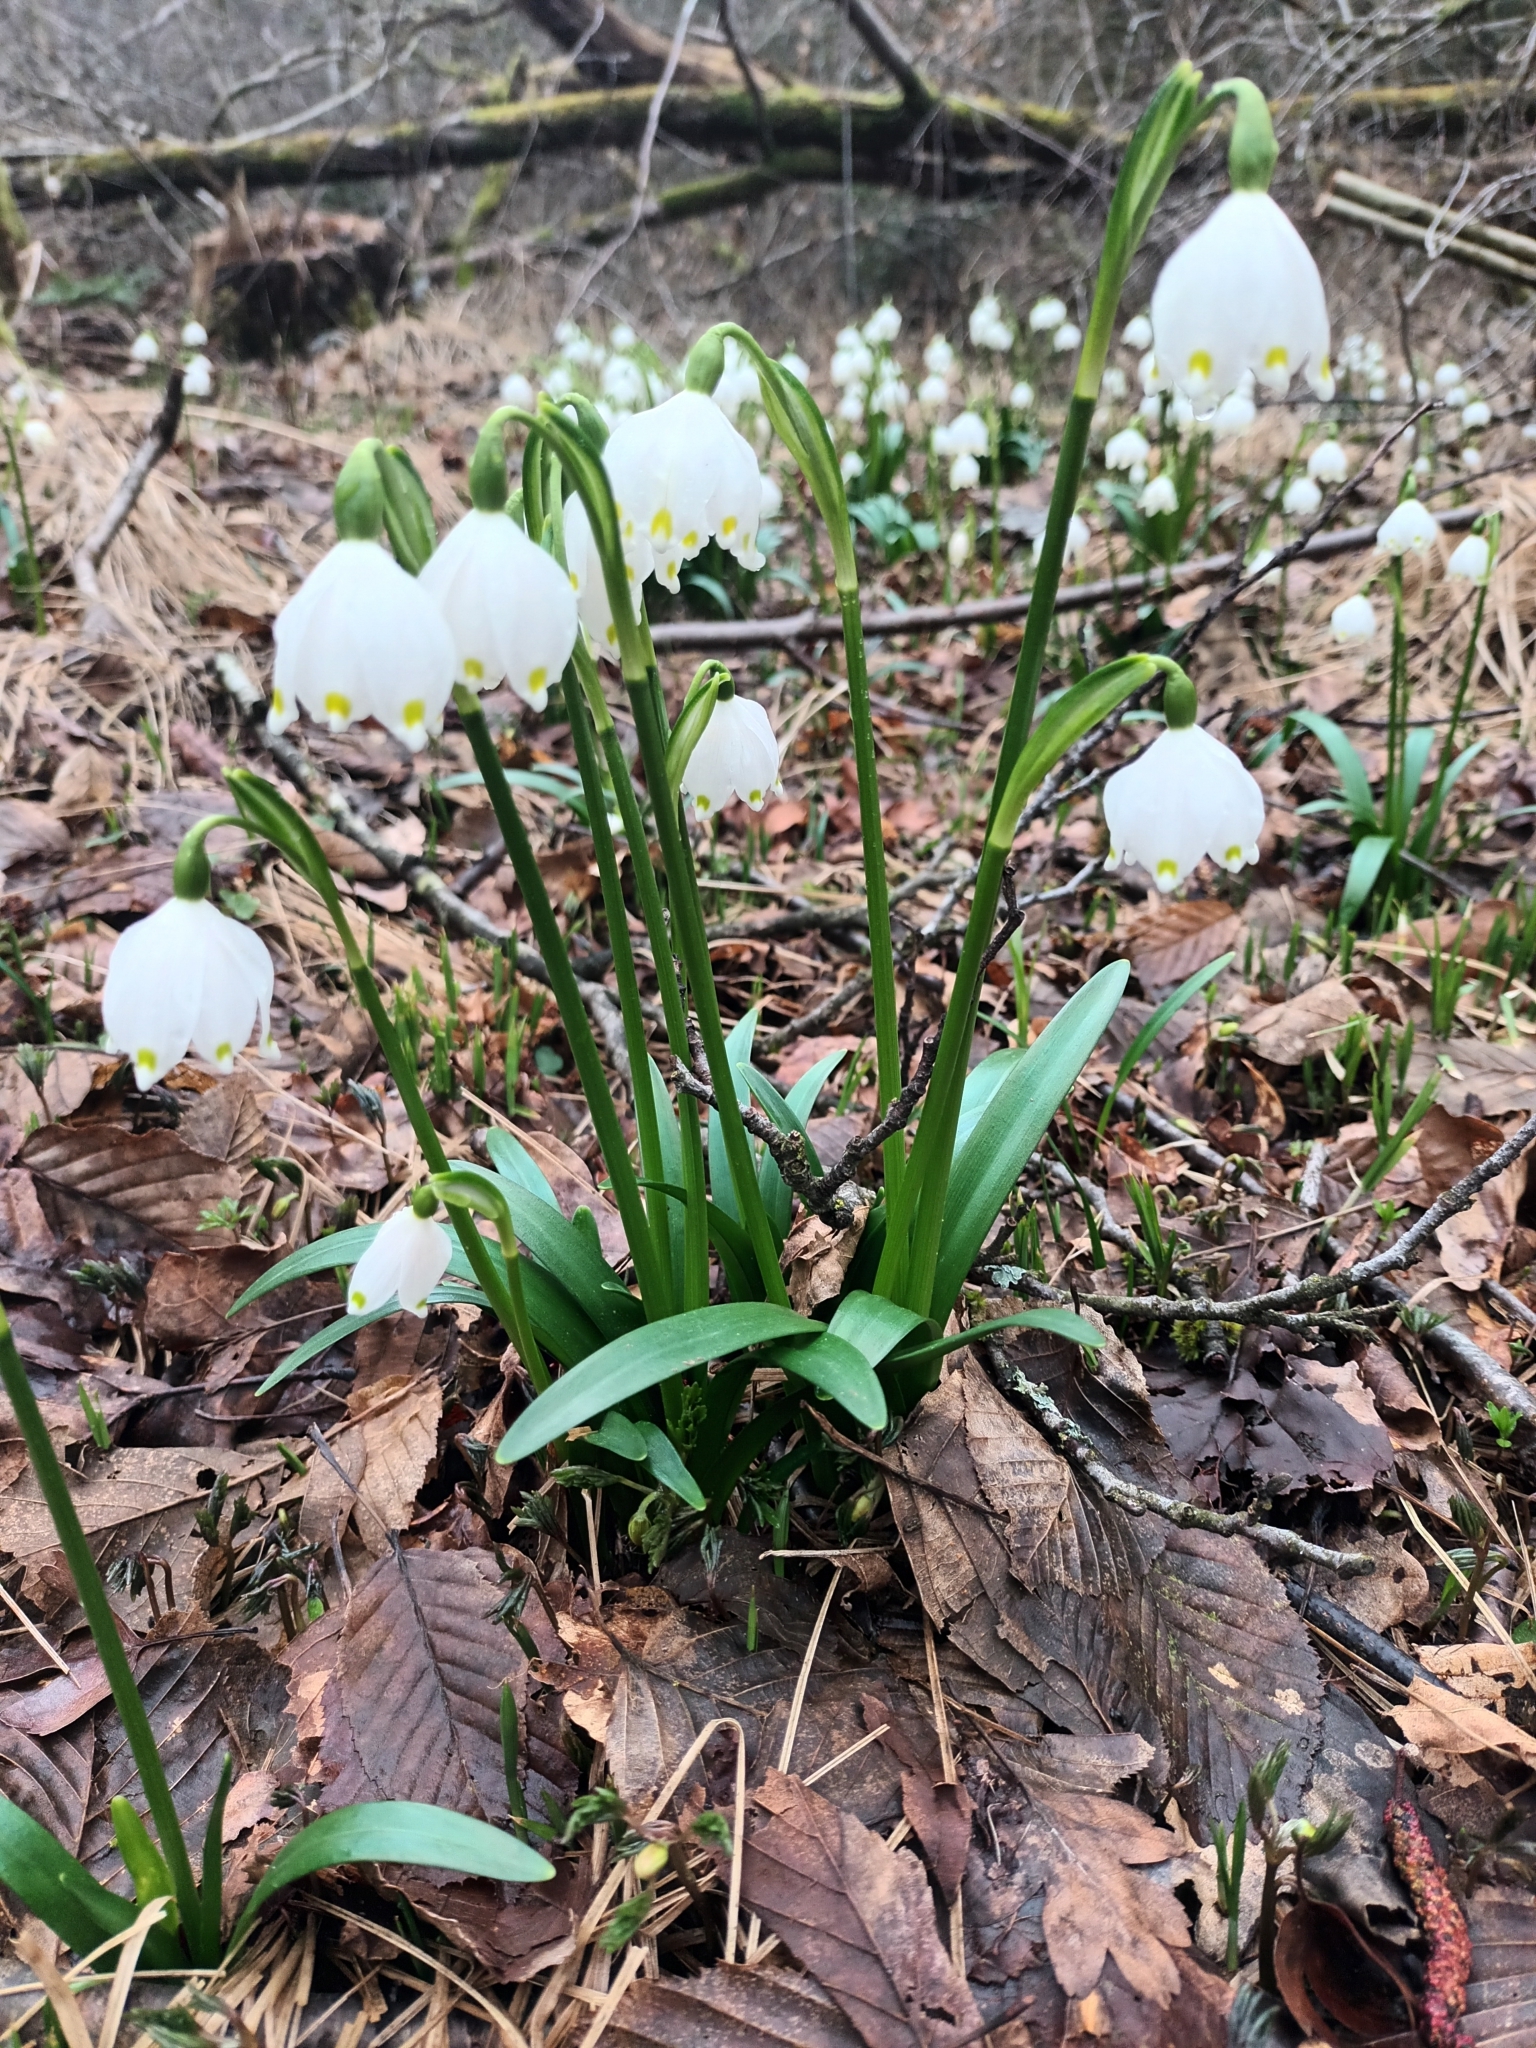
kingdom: Plantae
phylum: Tracheophyta
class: Liliopsida
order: Asparagales
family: Amaryllidaceae
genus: Leucojum
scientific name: Leucojum vernum
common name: Spring snowflake
